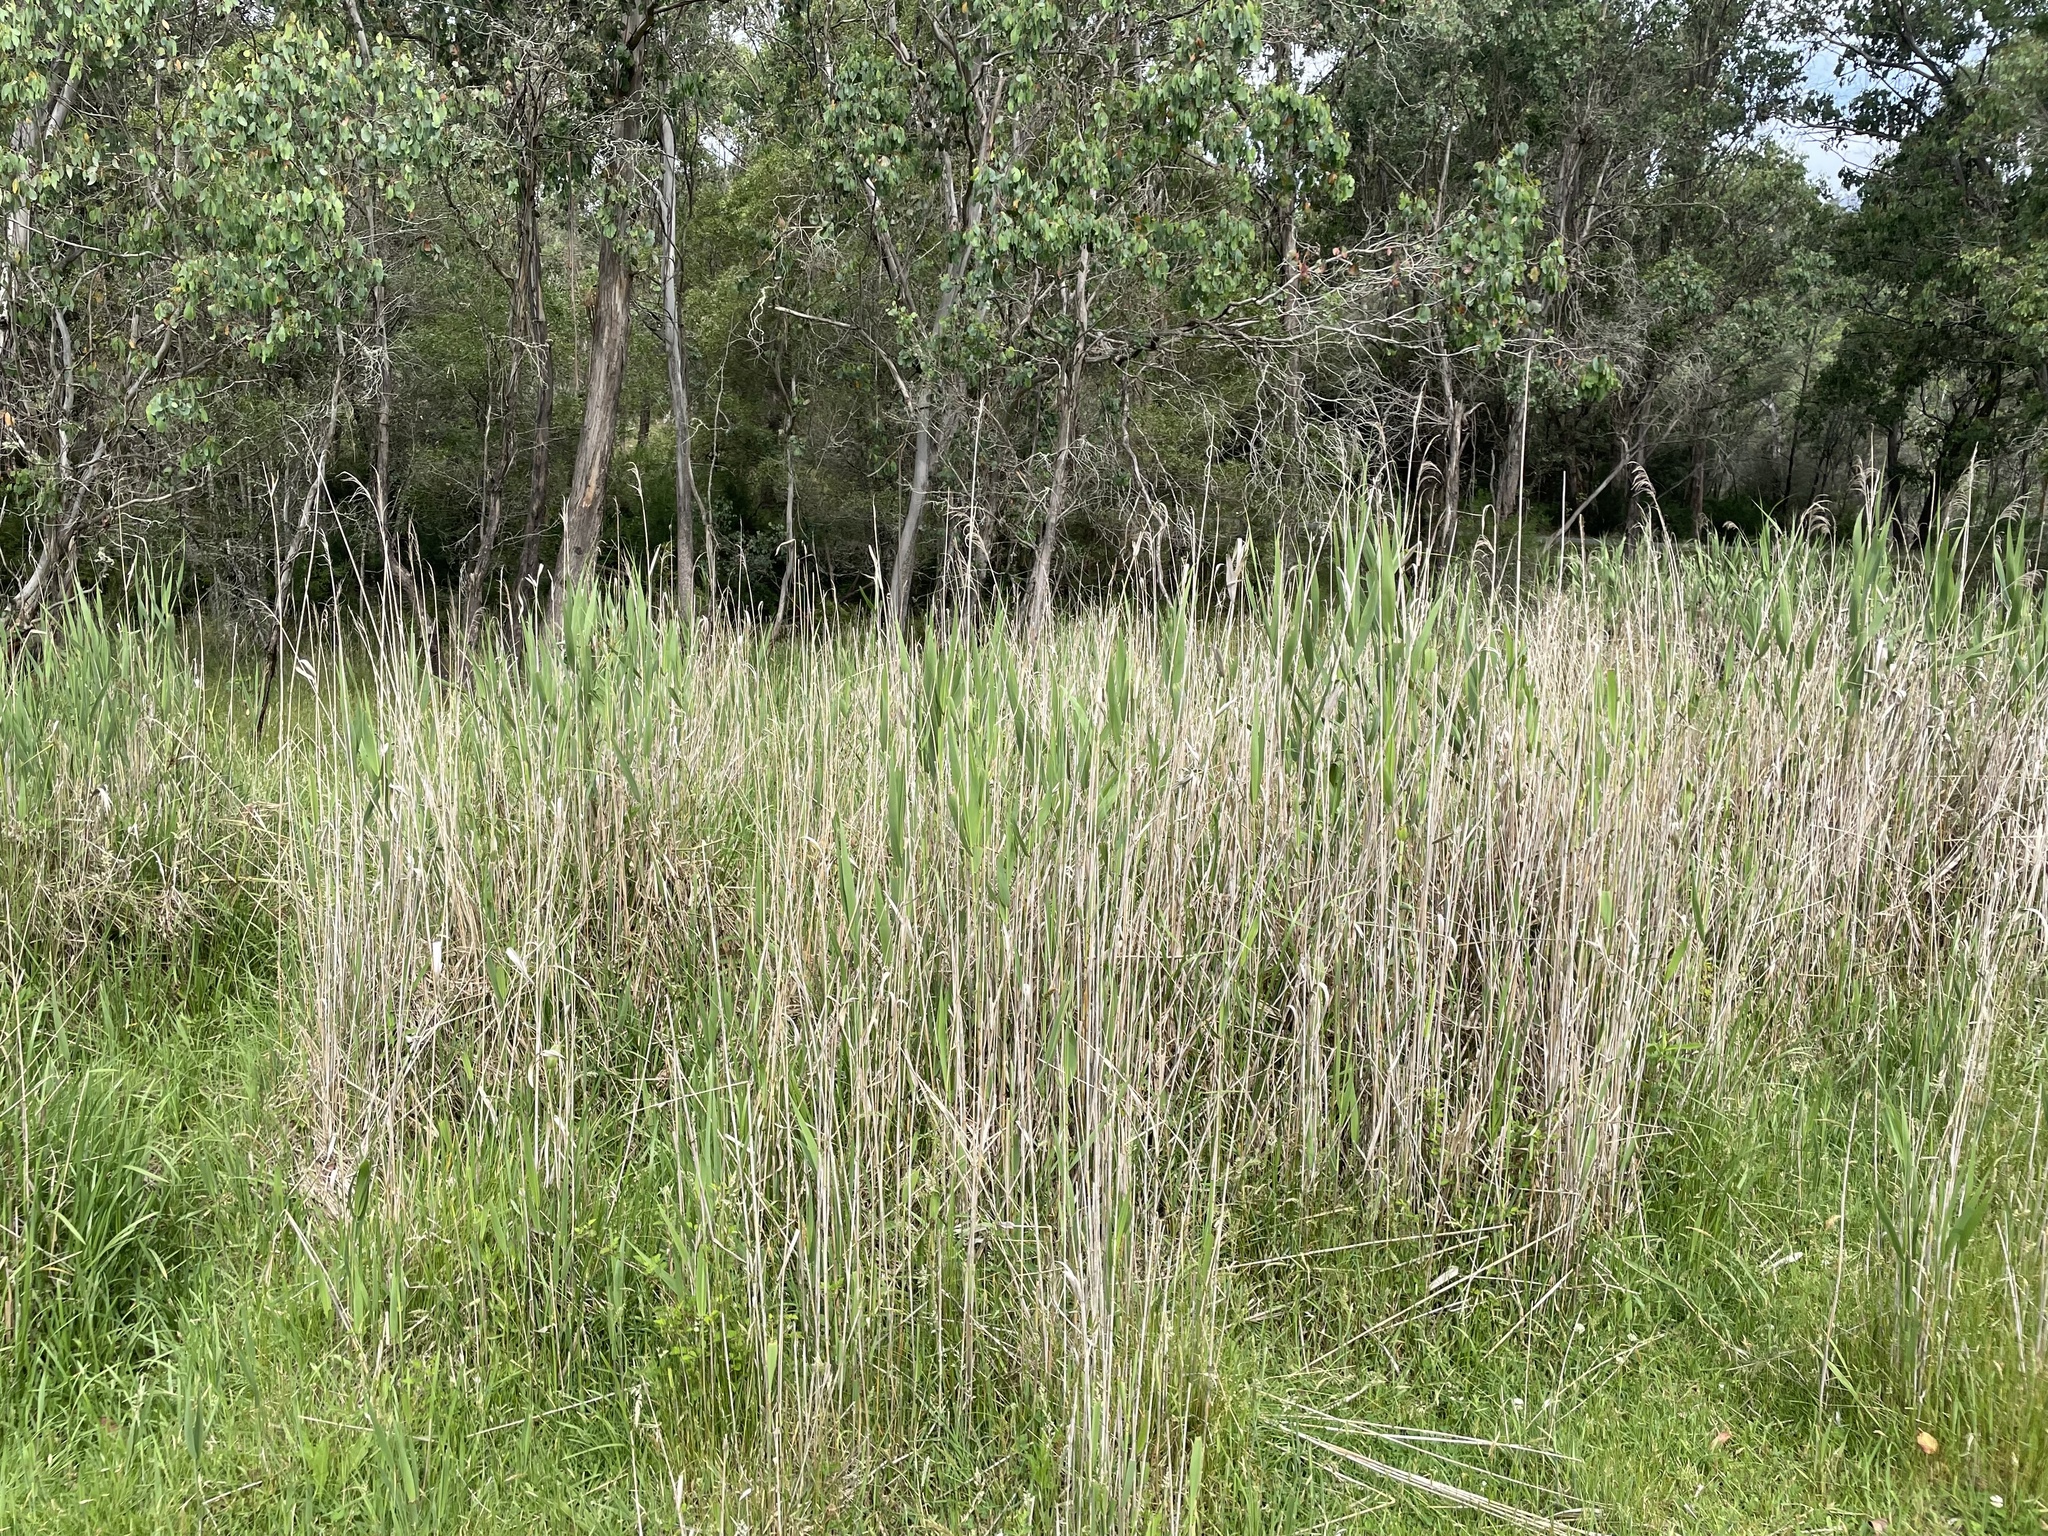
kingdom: Plantae
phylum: Tracheophyta
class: Liliopsida
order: Poales
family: Poaceae
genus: Phragmites
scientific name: Phragmites australis
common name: Common reed
